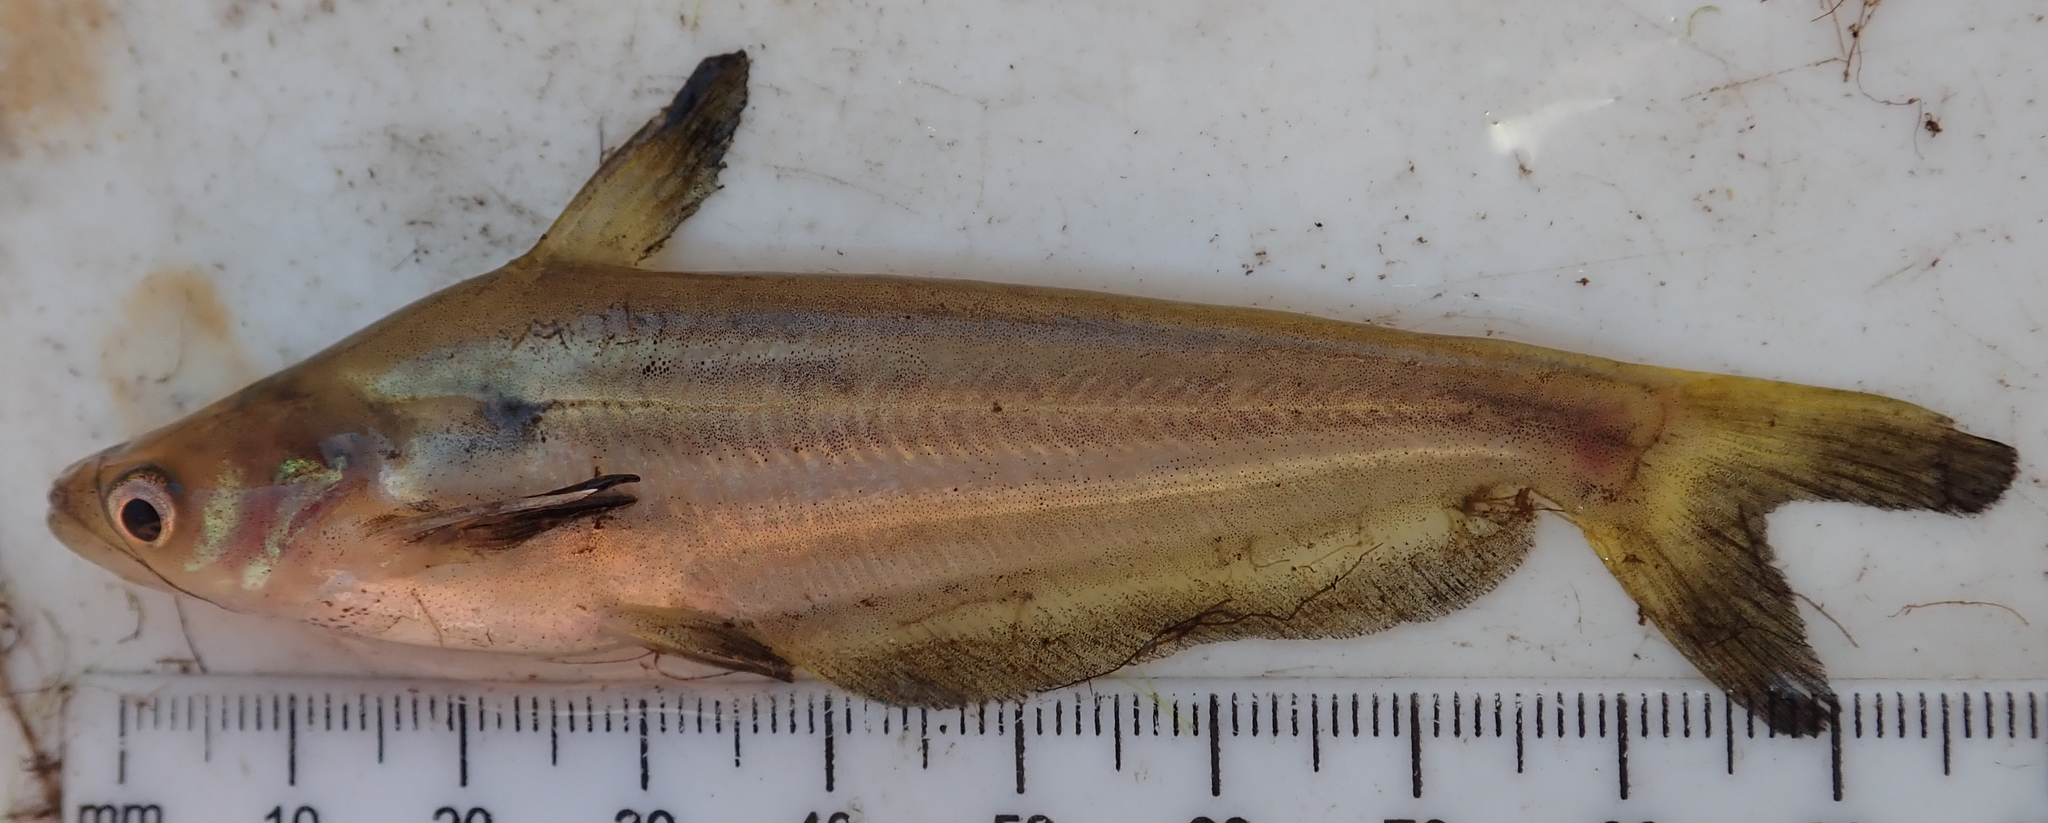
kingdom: Animalia
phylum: Chordata
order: Siluriformes
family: Schilbeidae
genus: Schilbe
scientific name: Schilbe intermedius
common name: Silver catfish
